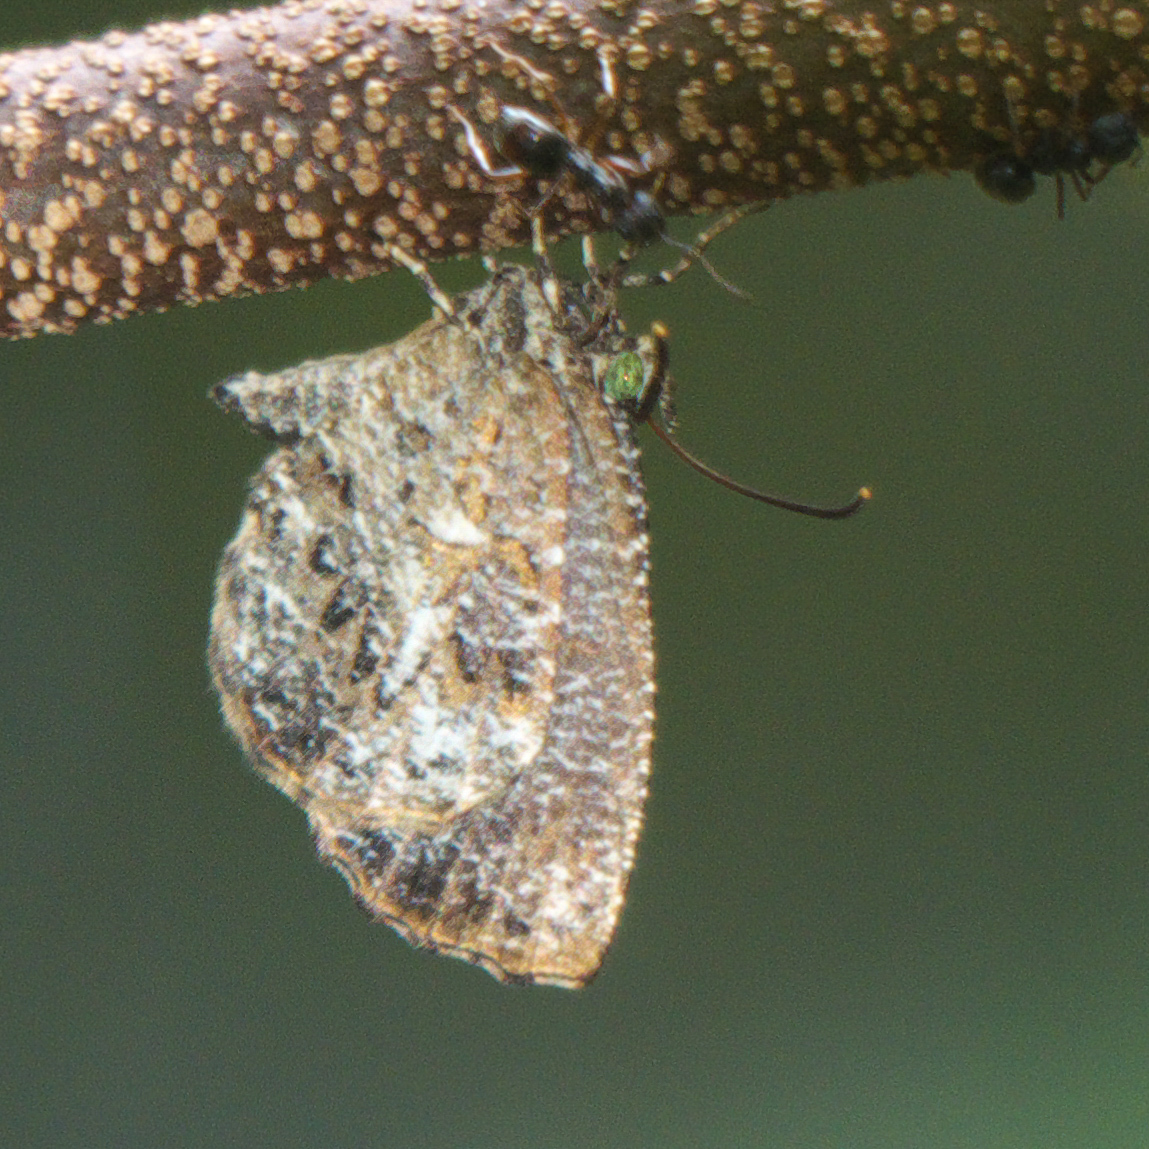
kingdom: Animalia
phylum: Arthropoda
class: Insecta
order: Lepidoptera
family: Lycaenidae
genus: Logania
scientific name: Logania marmorata
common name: Pale mottle
